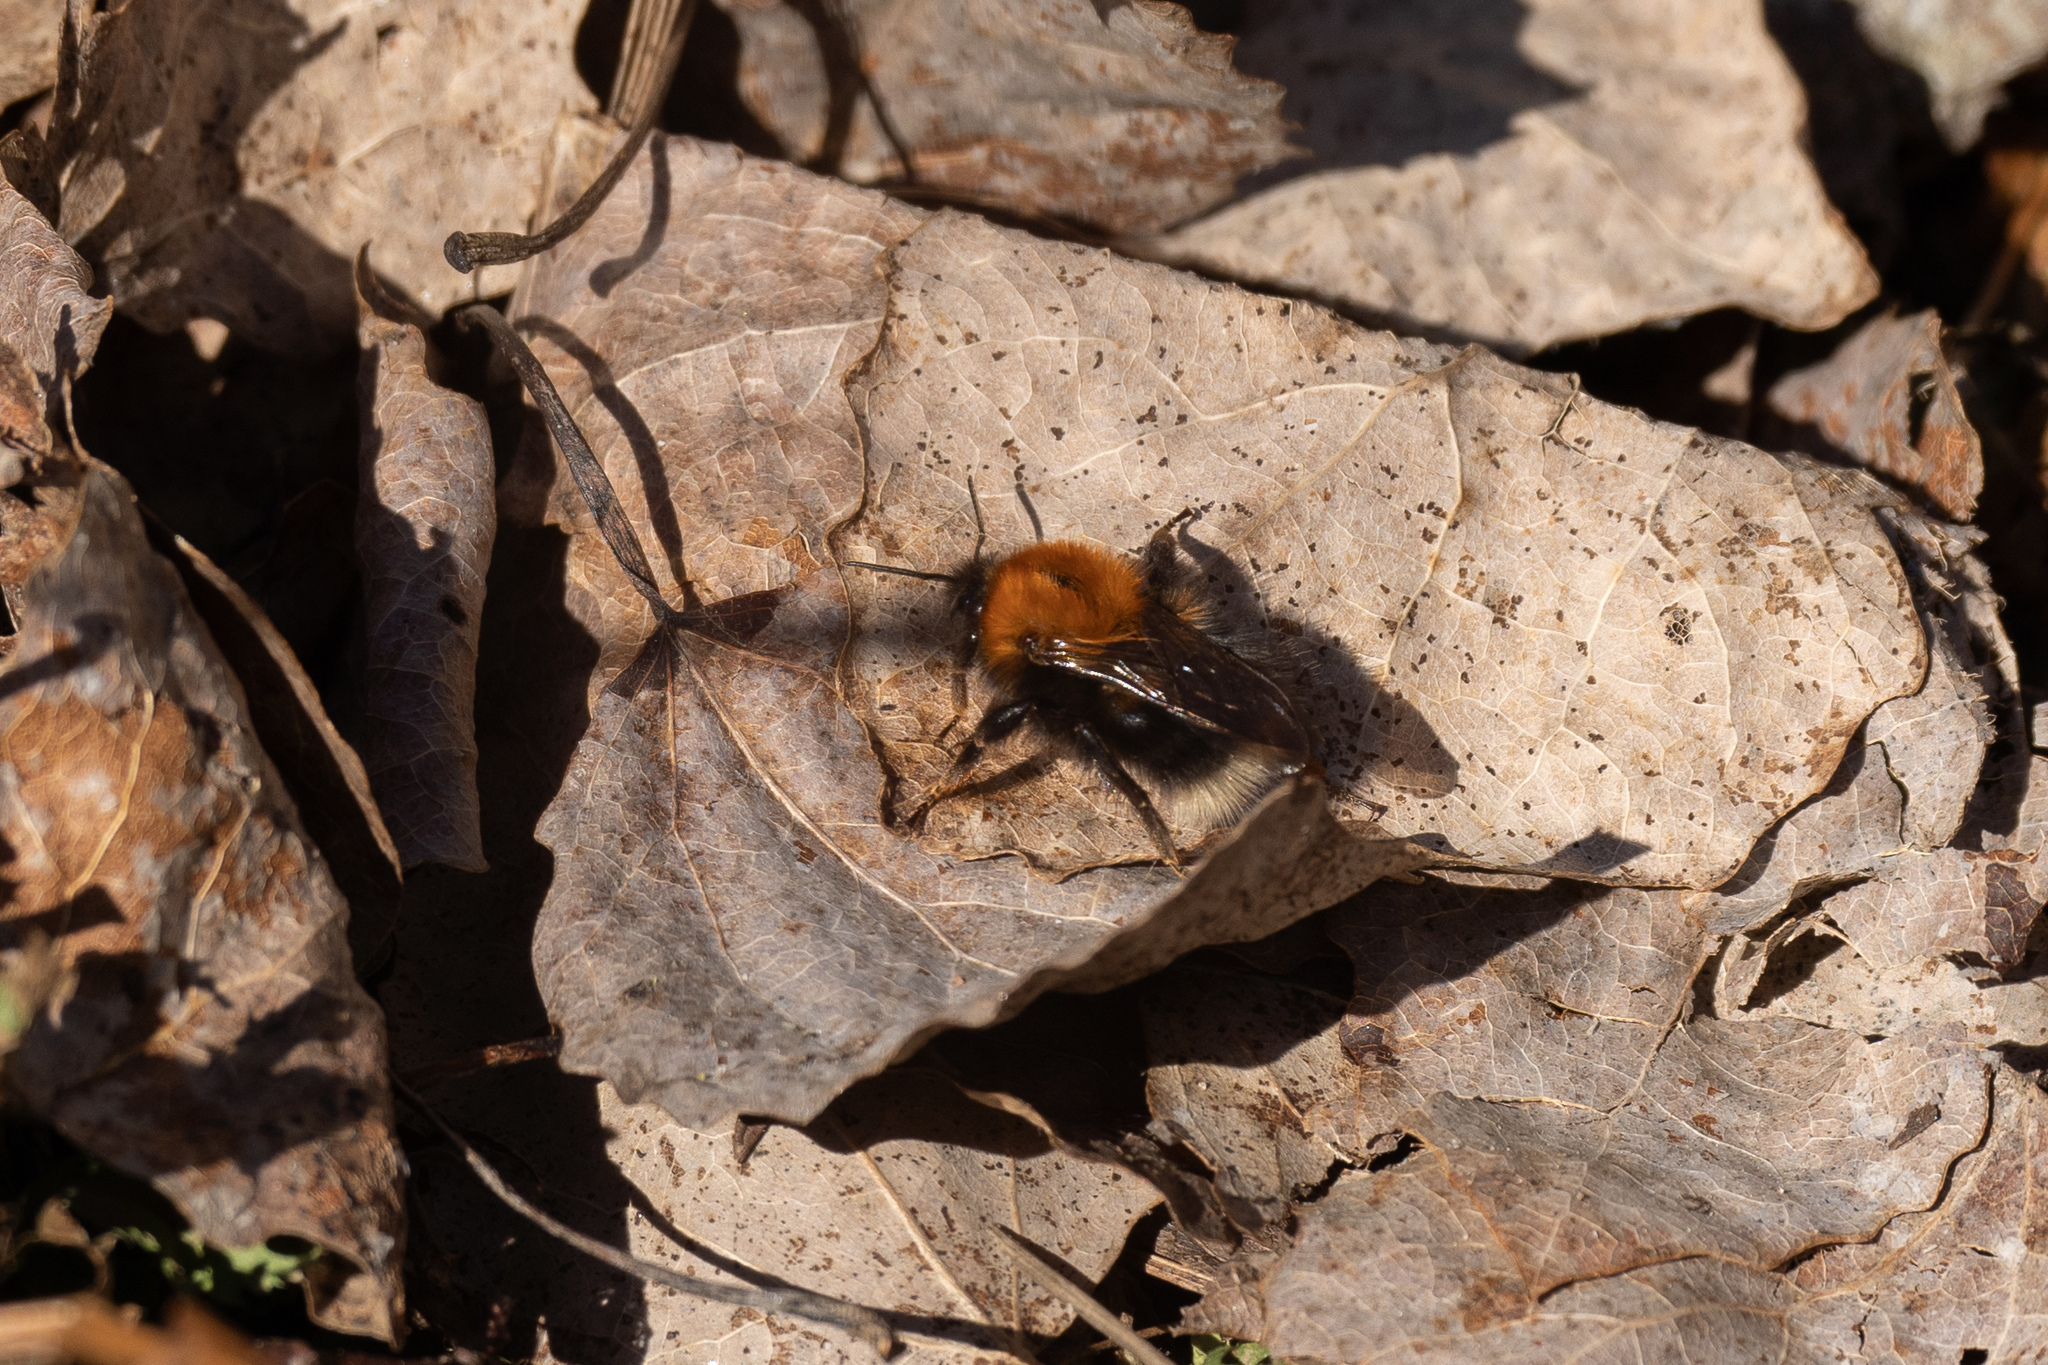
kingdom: Animalia
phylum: Arthropoda
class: Insecta
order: Hymenoptera
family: Apidae
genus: Bombus
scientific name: Bombus hypnorum
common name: New garden bumblebee
